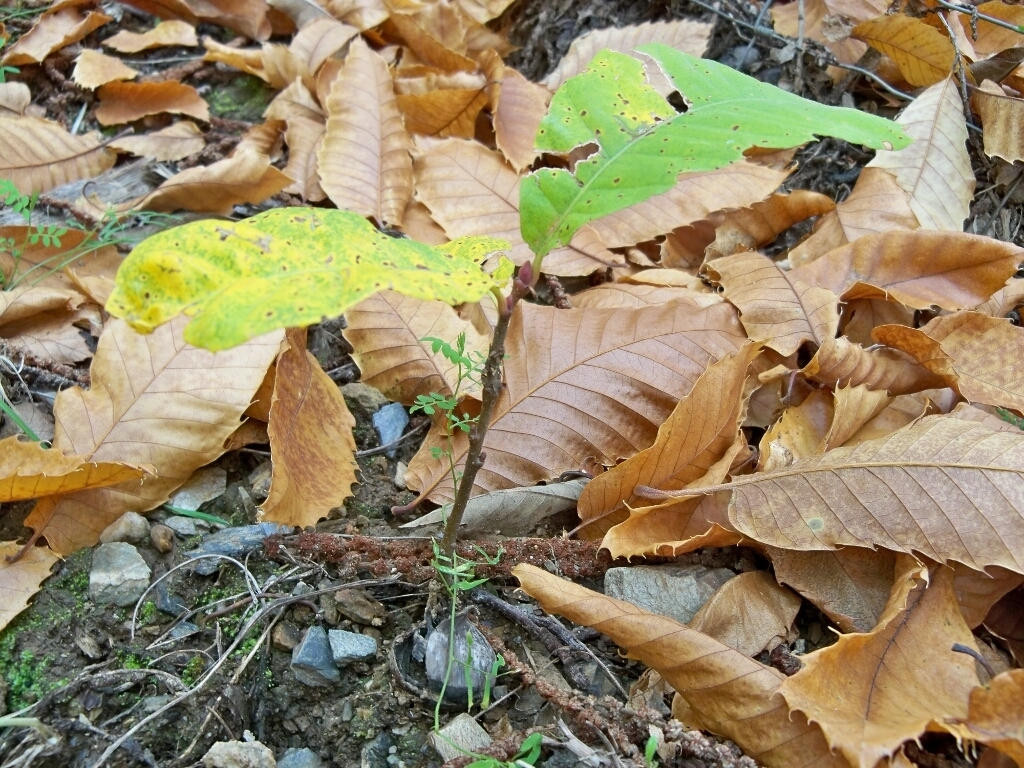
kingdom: Plantae
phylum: Tracheophyta
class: Magnoliopsida
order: Fagales
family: Fagaceae
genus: Castanea
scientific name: Castanea sativa
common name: Sweet chestnut
